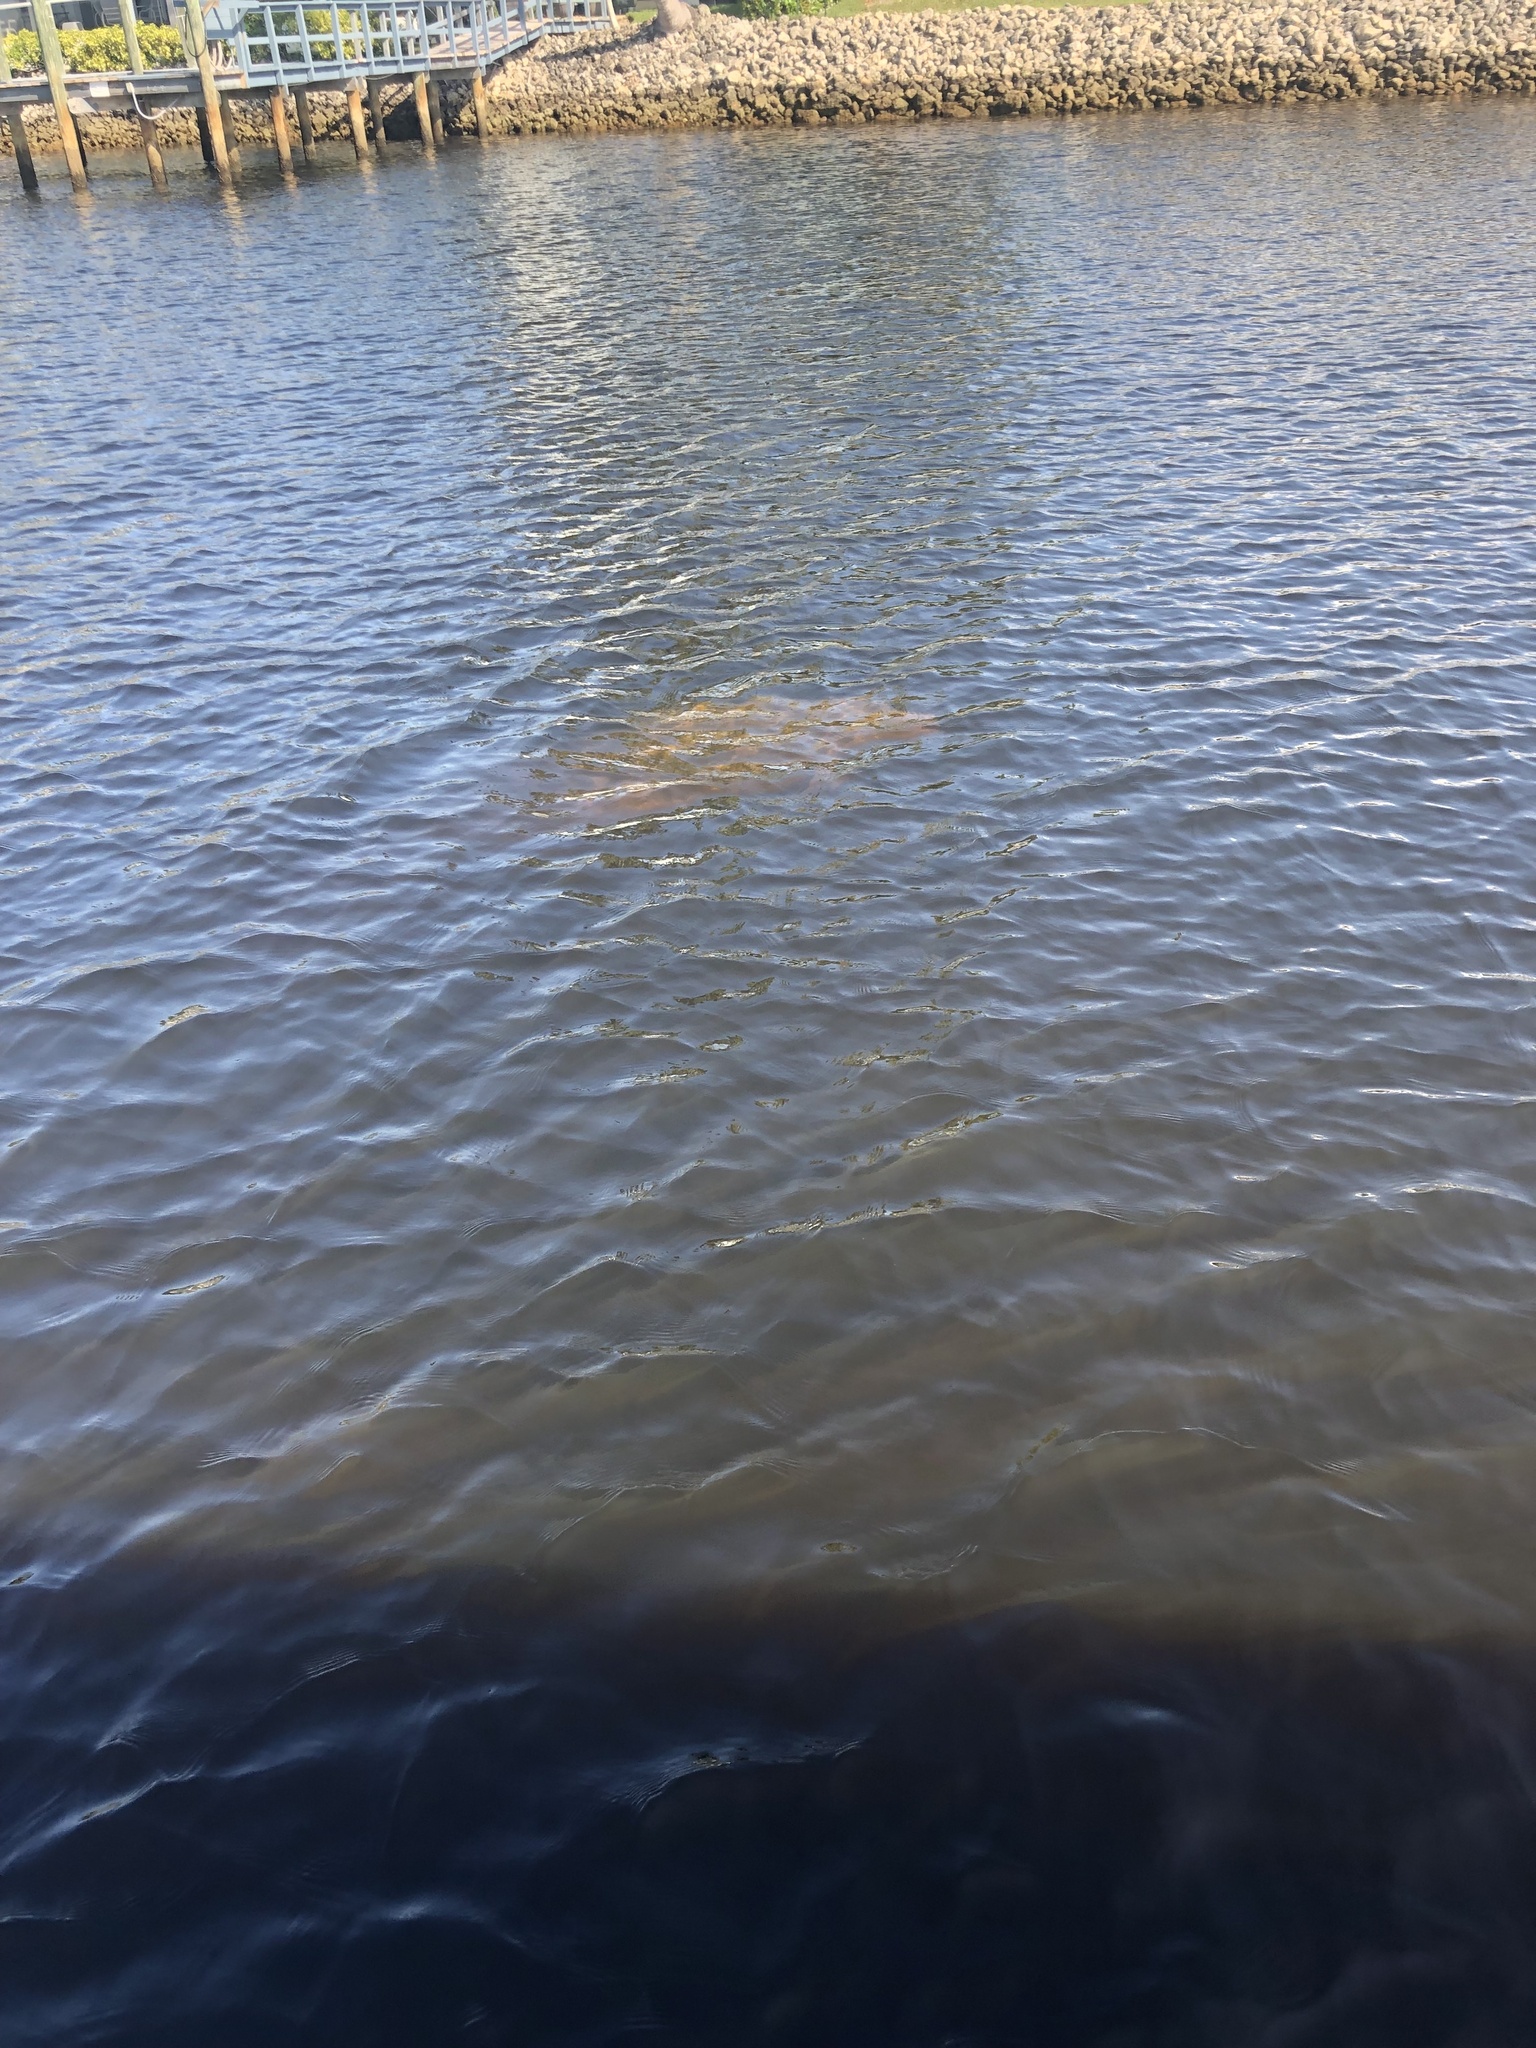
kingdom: Animalia
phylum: Chordata
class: Mammalia
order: Sirenia
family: Trichechidae
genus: Trichechus
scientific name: Trichechus manatus
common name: West indian manatee
